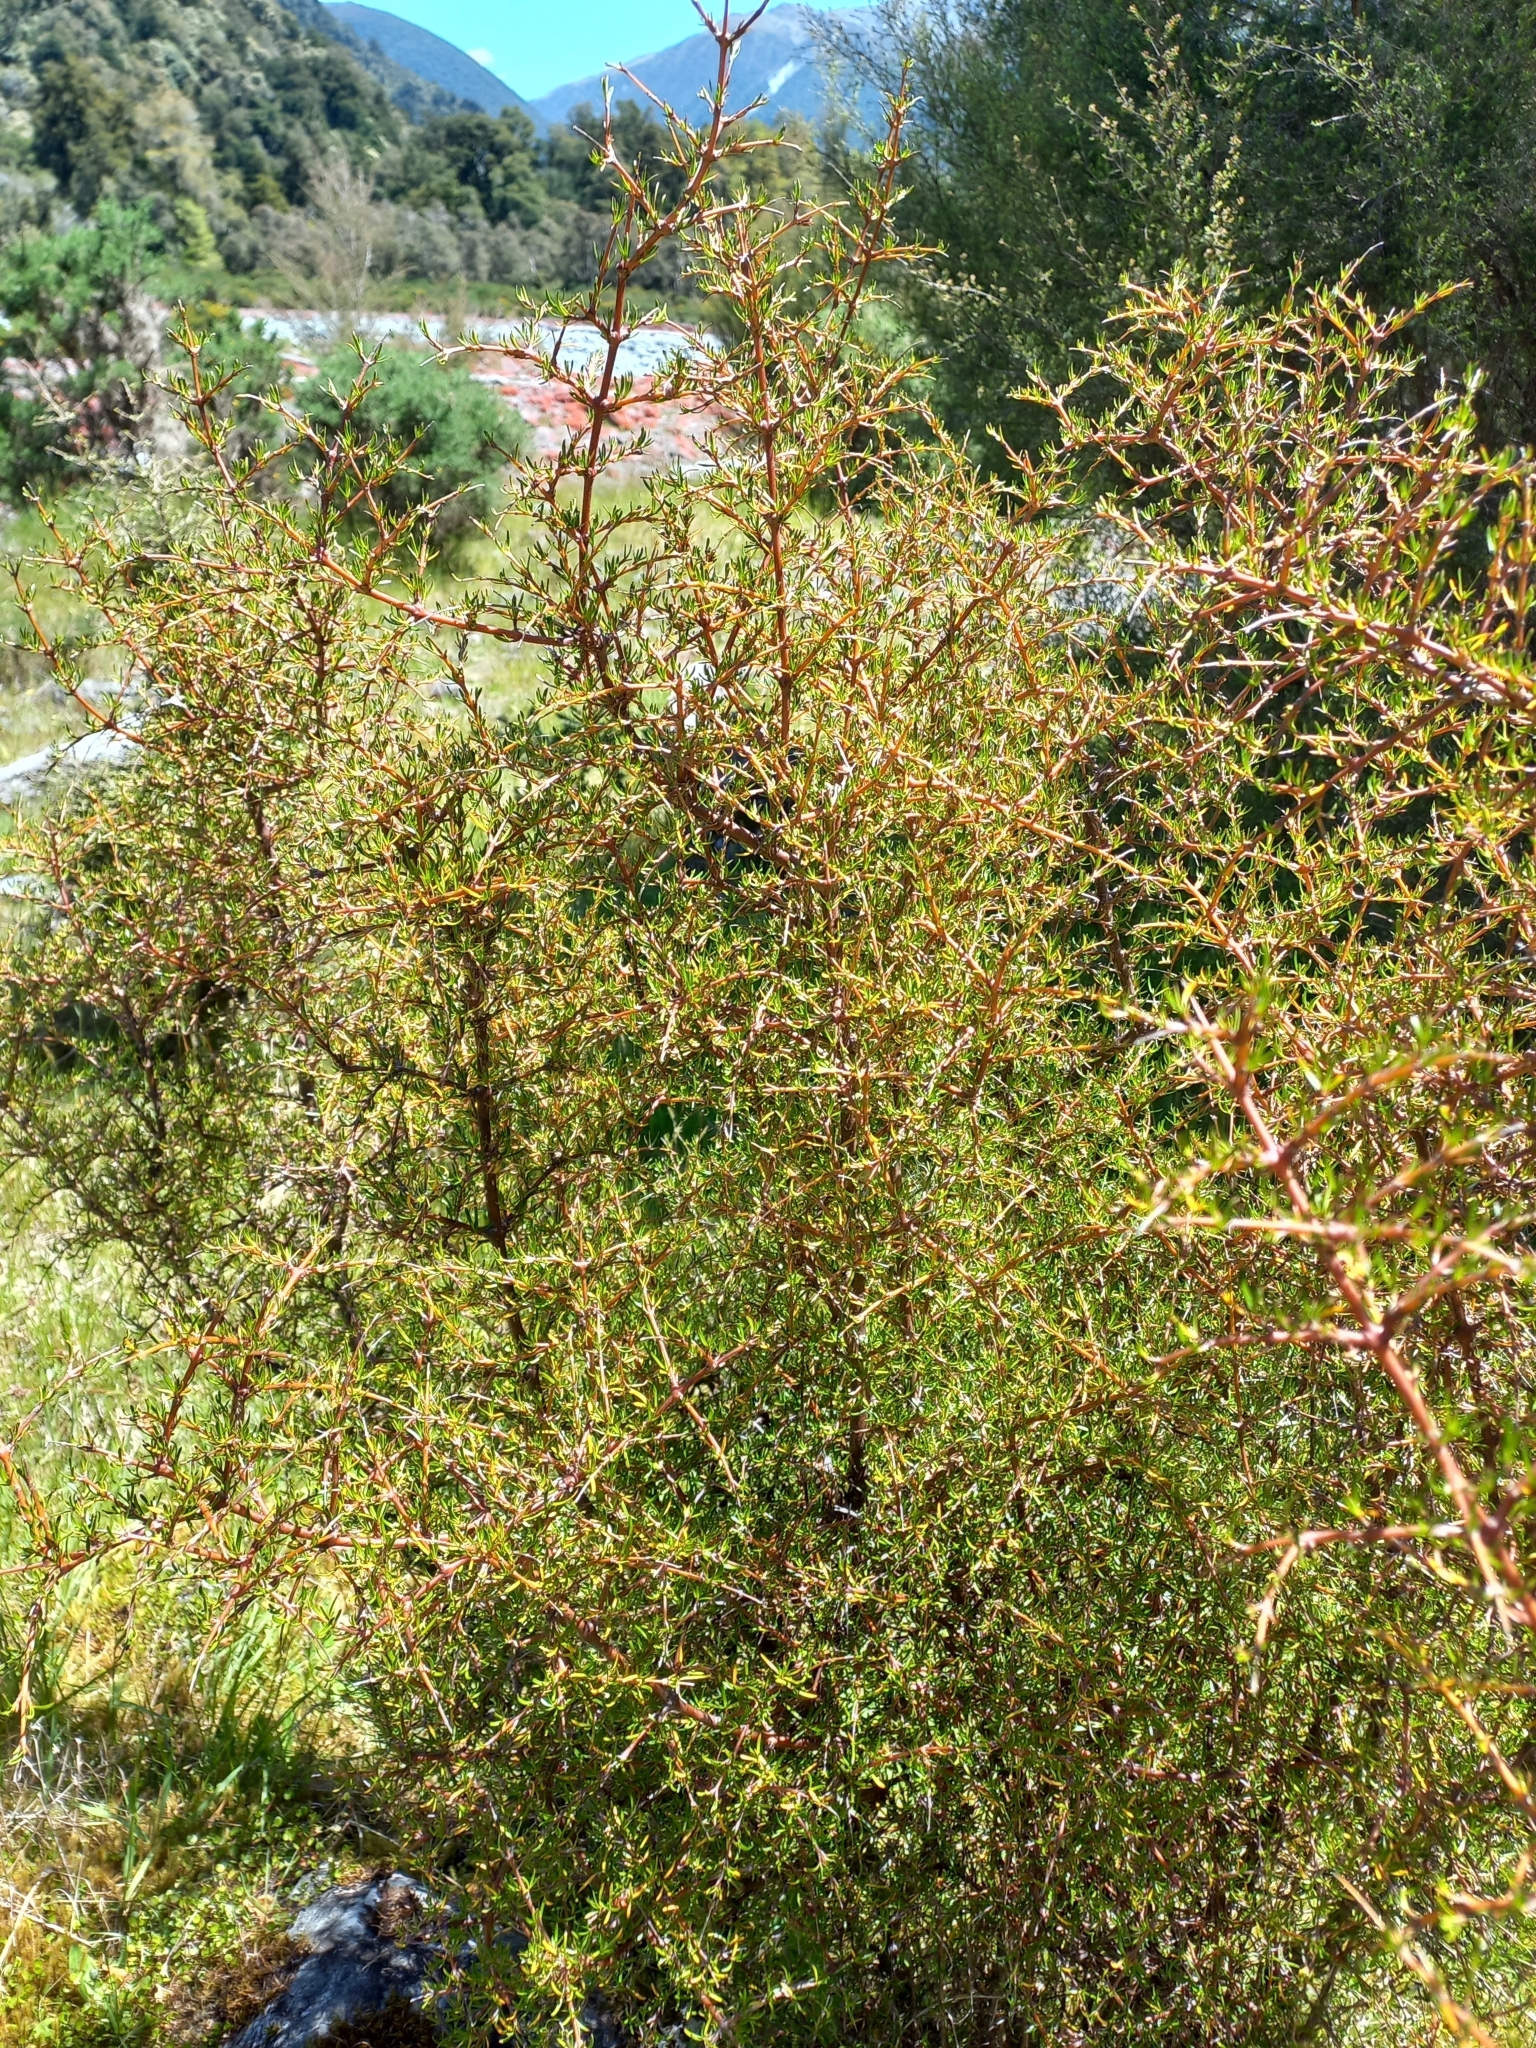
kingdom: Plantae
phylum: Tracheophyta
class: Magnoliopsida
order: Gentianales
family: Rubiaceae
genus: Coprosma
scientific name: Coprosma rugosa
